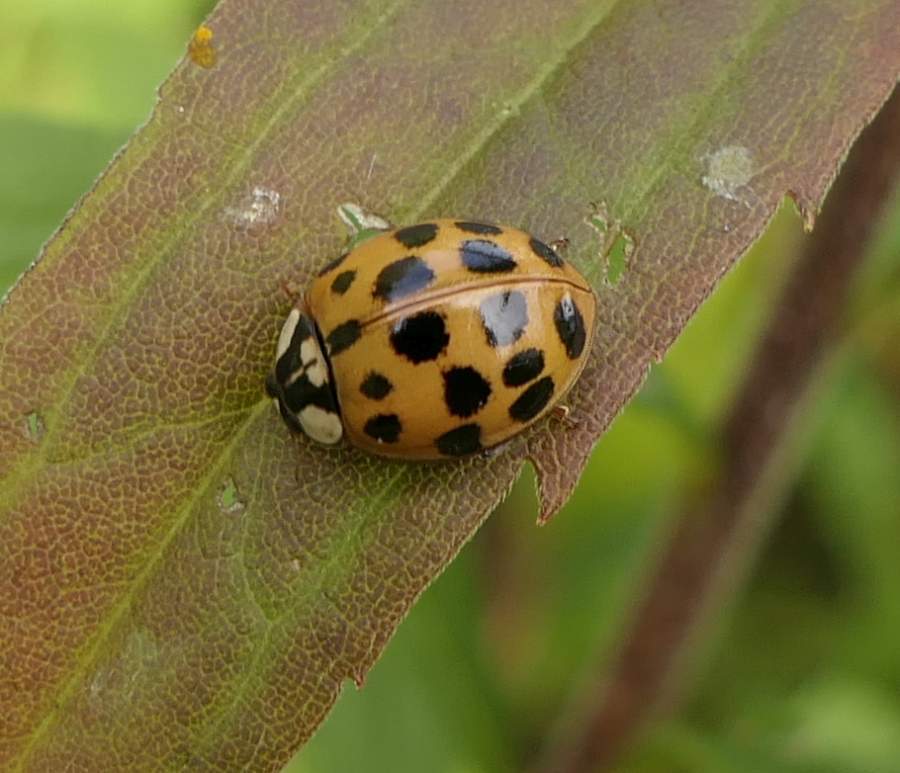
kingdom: Animalia
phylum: Arthropoda
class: Insecta
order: Coleoptera
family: Coccinellidae
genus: Harmonia
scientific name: Harmonia axyridis
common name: Harlequin ladybird
